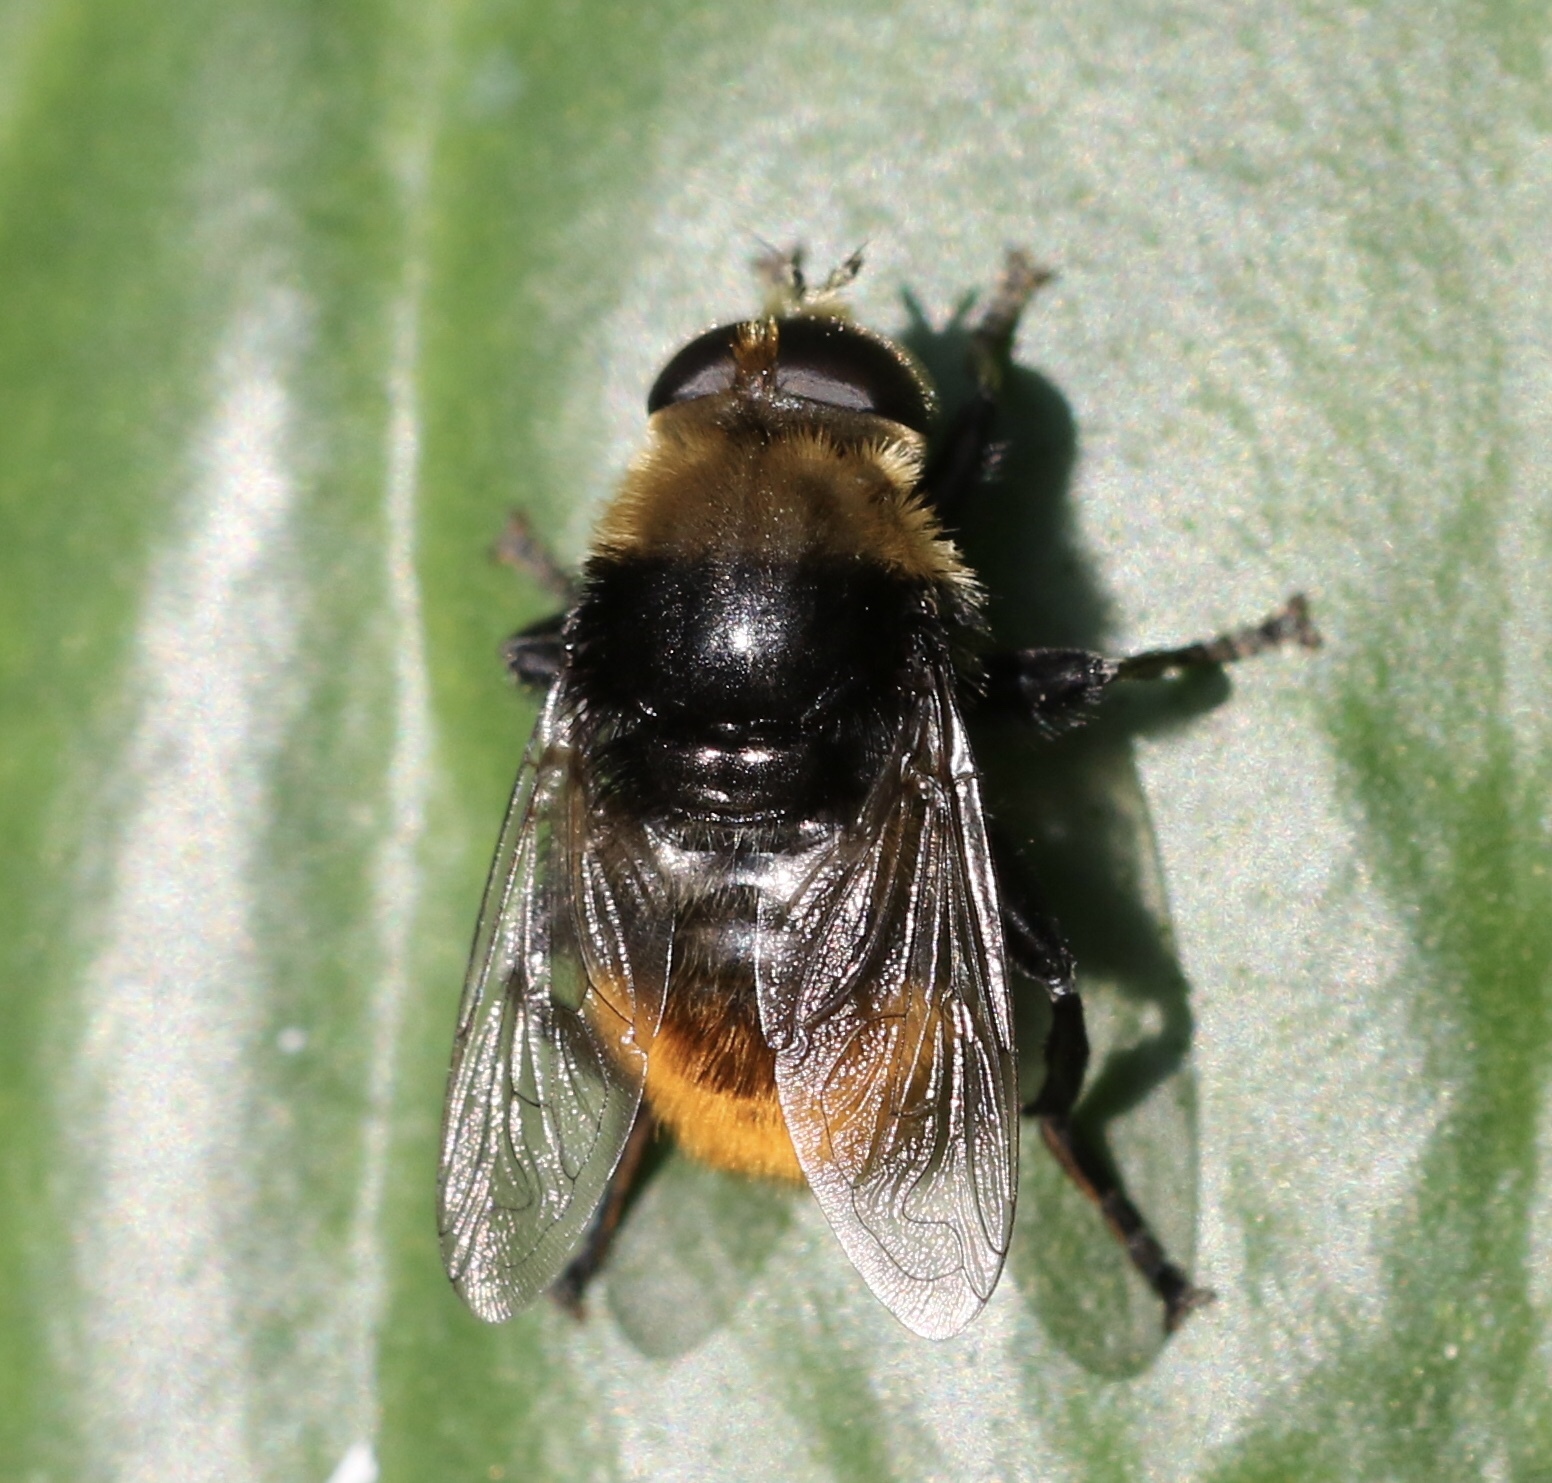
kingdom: Animalia
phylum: Arthropoda
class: Insecta
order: Diptera
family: Syrphidae
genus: Merodon
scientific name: Merodon equestris
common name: Greater bulb-fly
